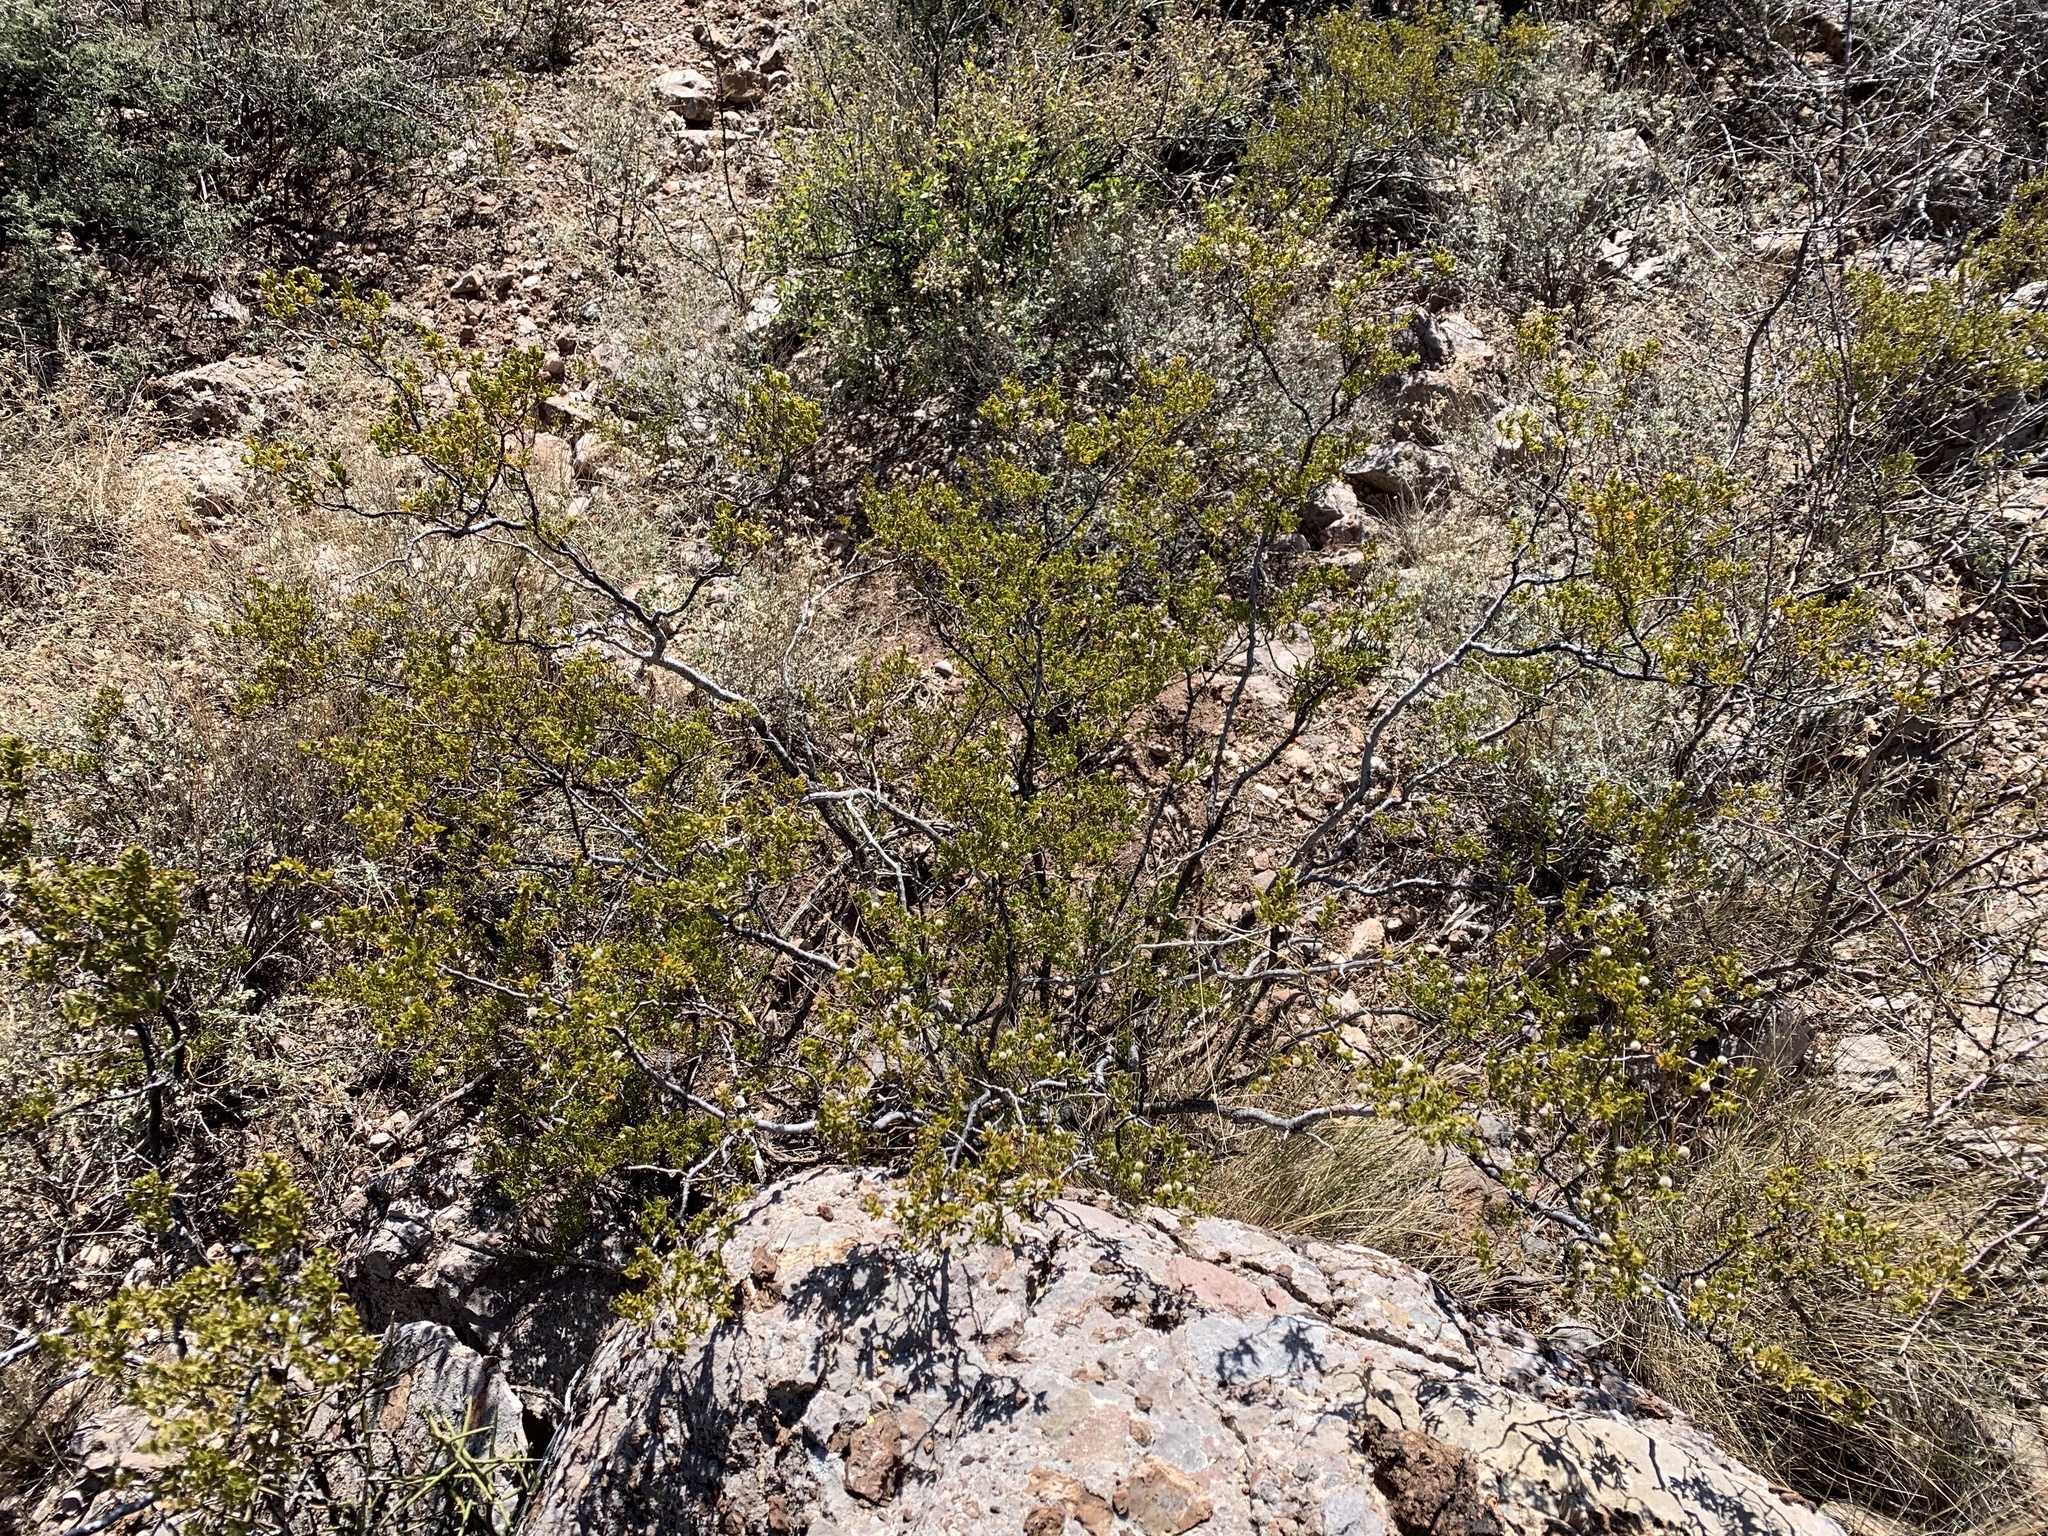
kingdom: Plantae
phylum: Tracheophyta
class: Magnoliopsida
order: Zygophyllales
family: Zygophyllaceae
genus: Larrea
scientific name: Larrea tridentata
